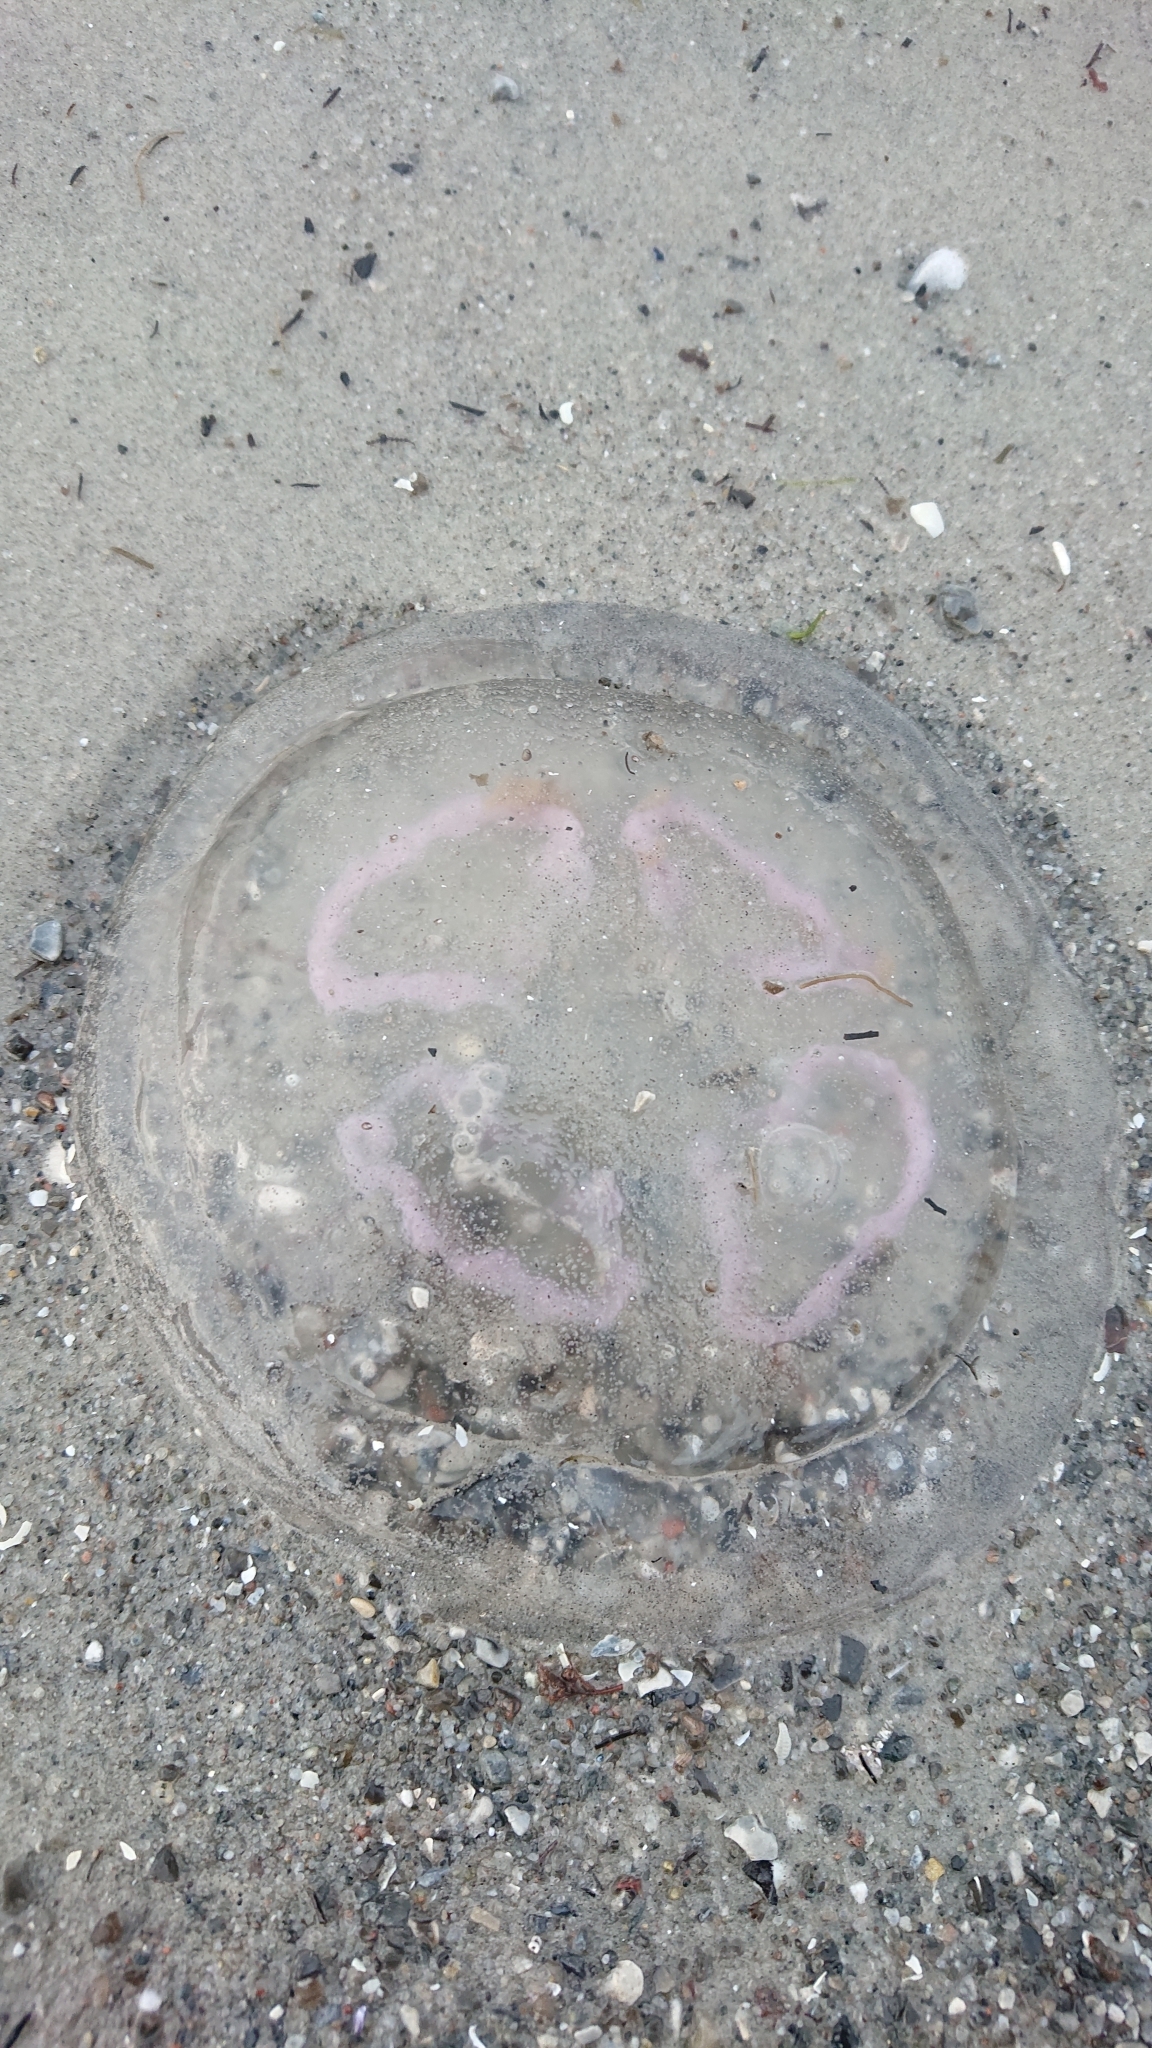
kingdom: Animalia
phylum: Cnidaria
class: Scyphozoa
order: Semaeostomeae
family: Ulmaridae
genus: Aurelia
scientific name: Aurelia aurita
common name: Moon jellyfish
